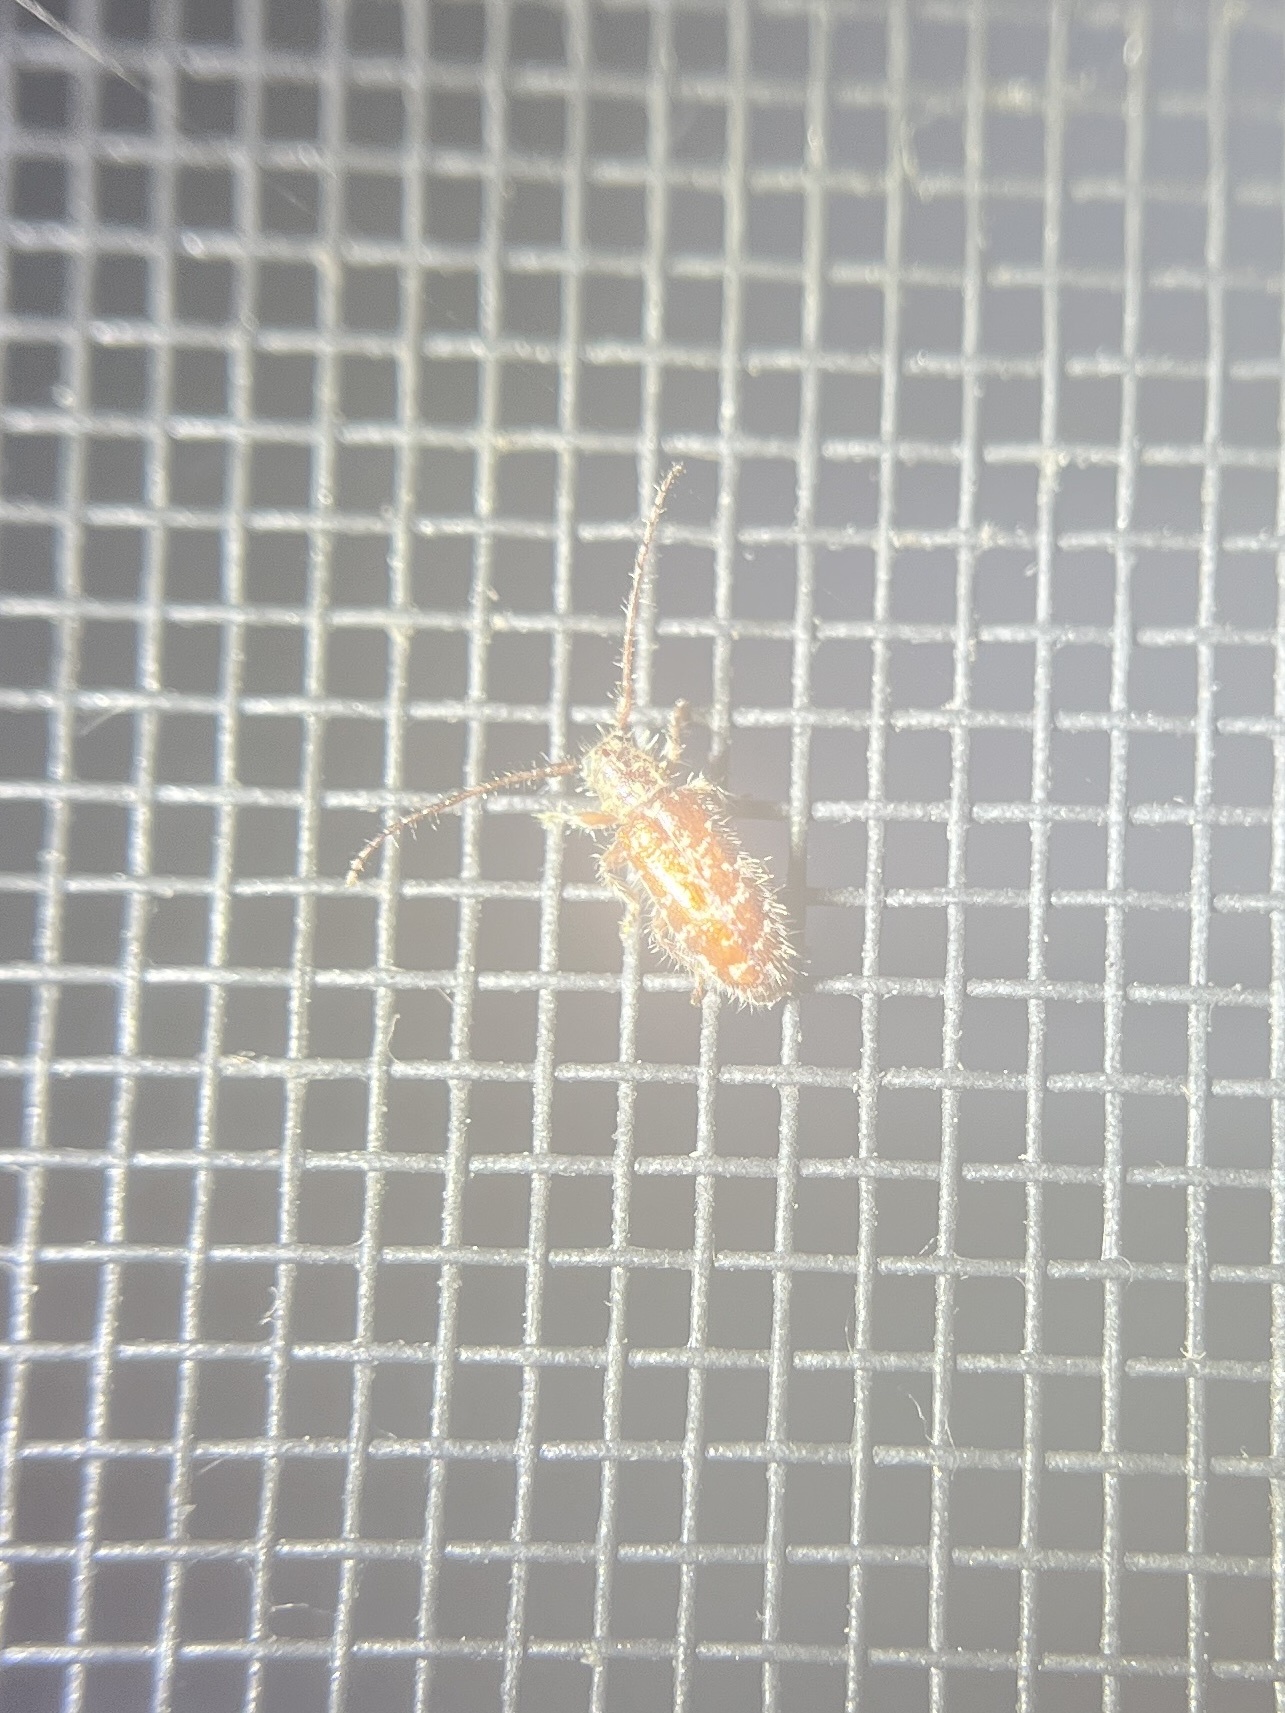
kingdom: Animalia
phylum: Arthropoda
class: Insecta
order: Coleoptera
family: Cerambycidae
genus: Eupogonius
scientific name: Eupogonius tomentosus
